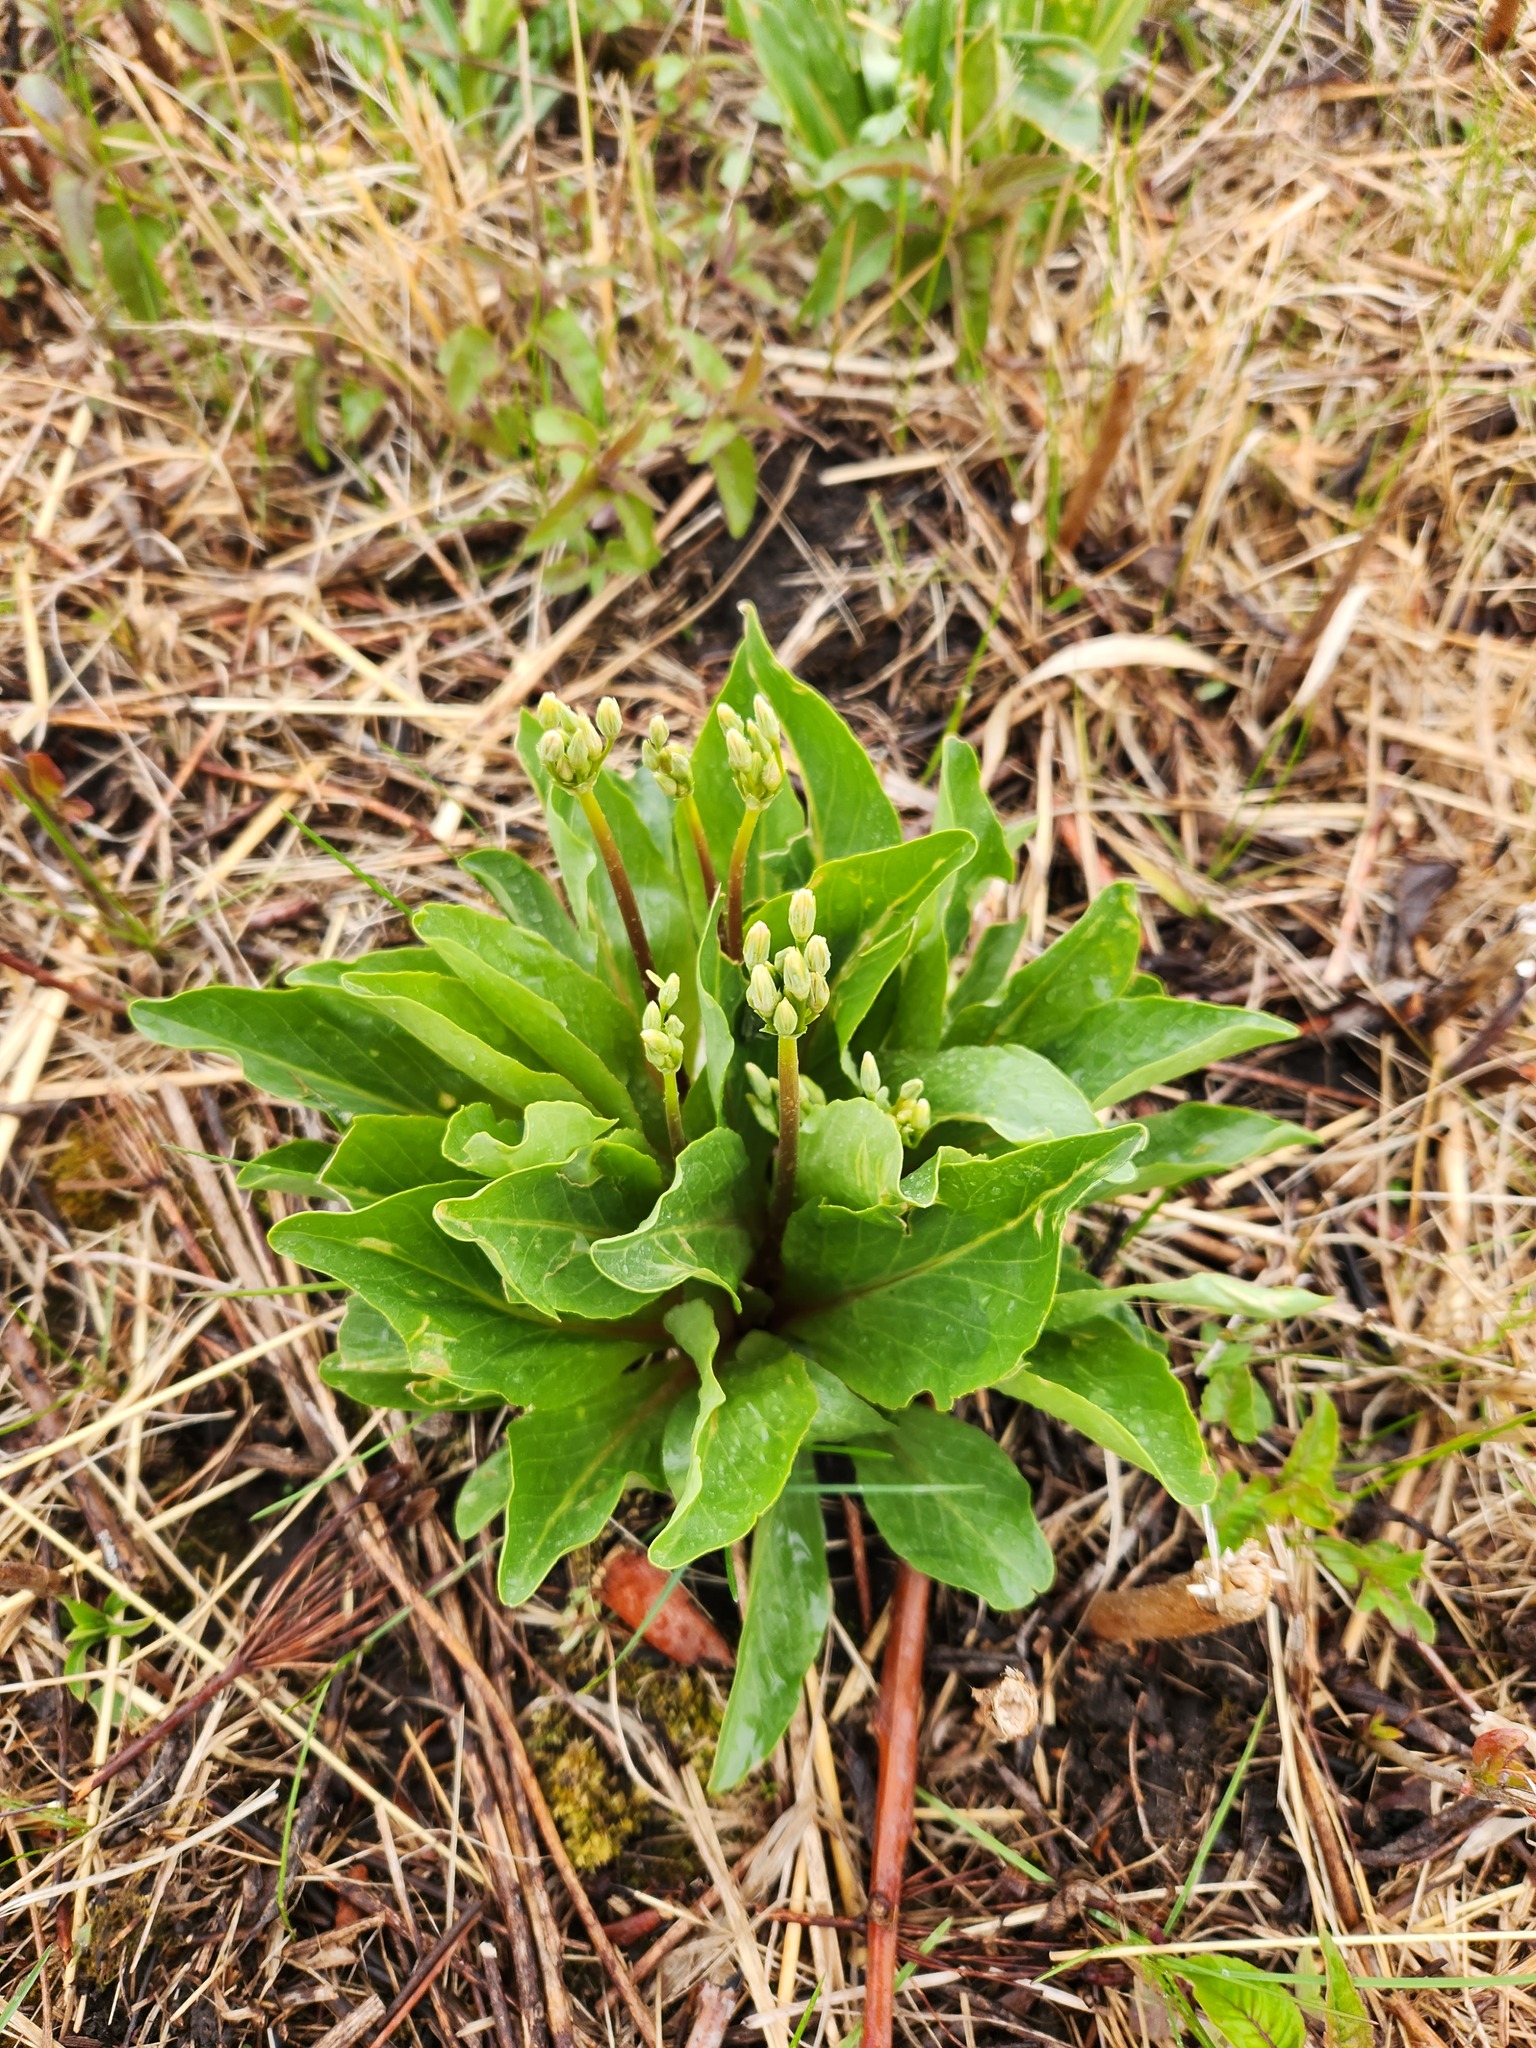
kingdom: Plantae
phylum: Tracheophyta
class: Magnoliopsida
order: Ericales
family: Primulaceae
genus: Dodecatheon
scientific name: Dodecatheon meadia
